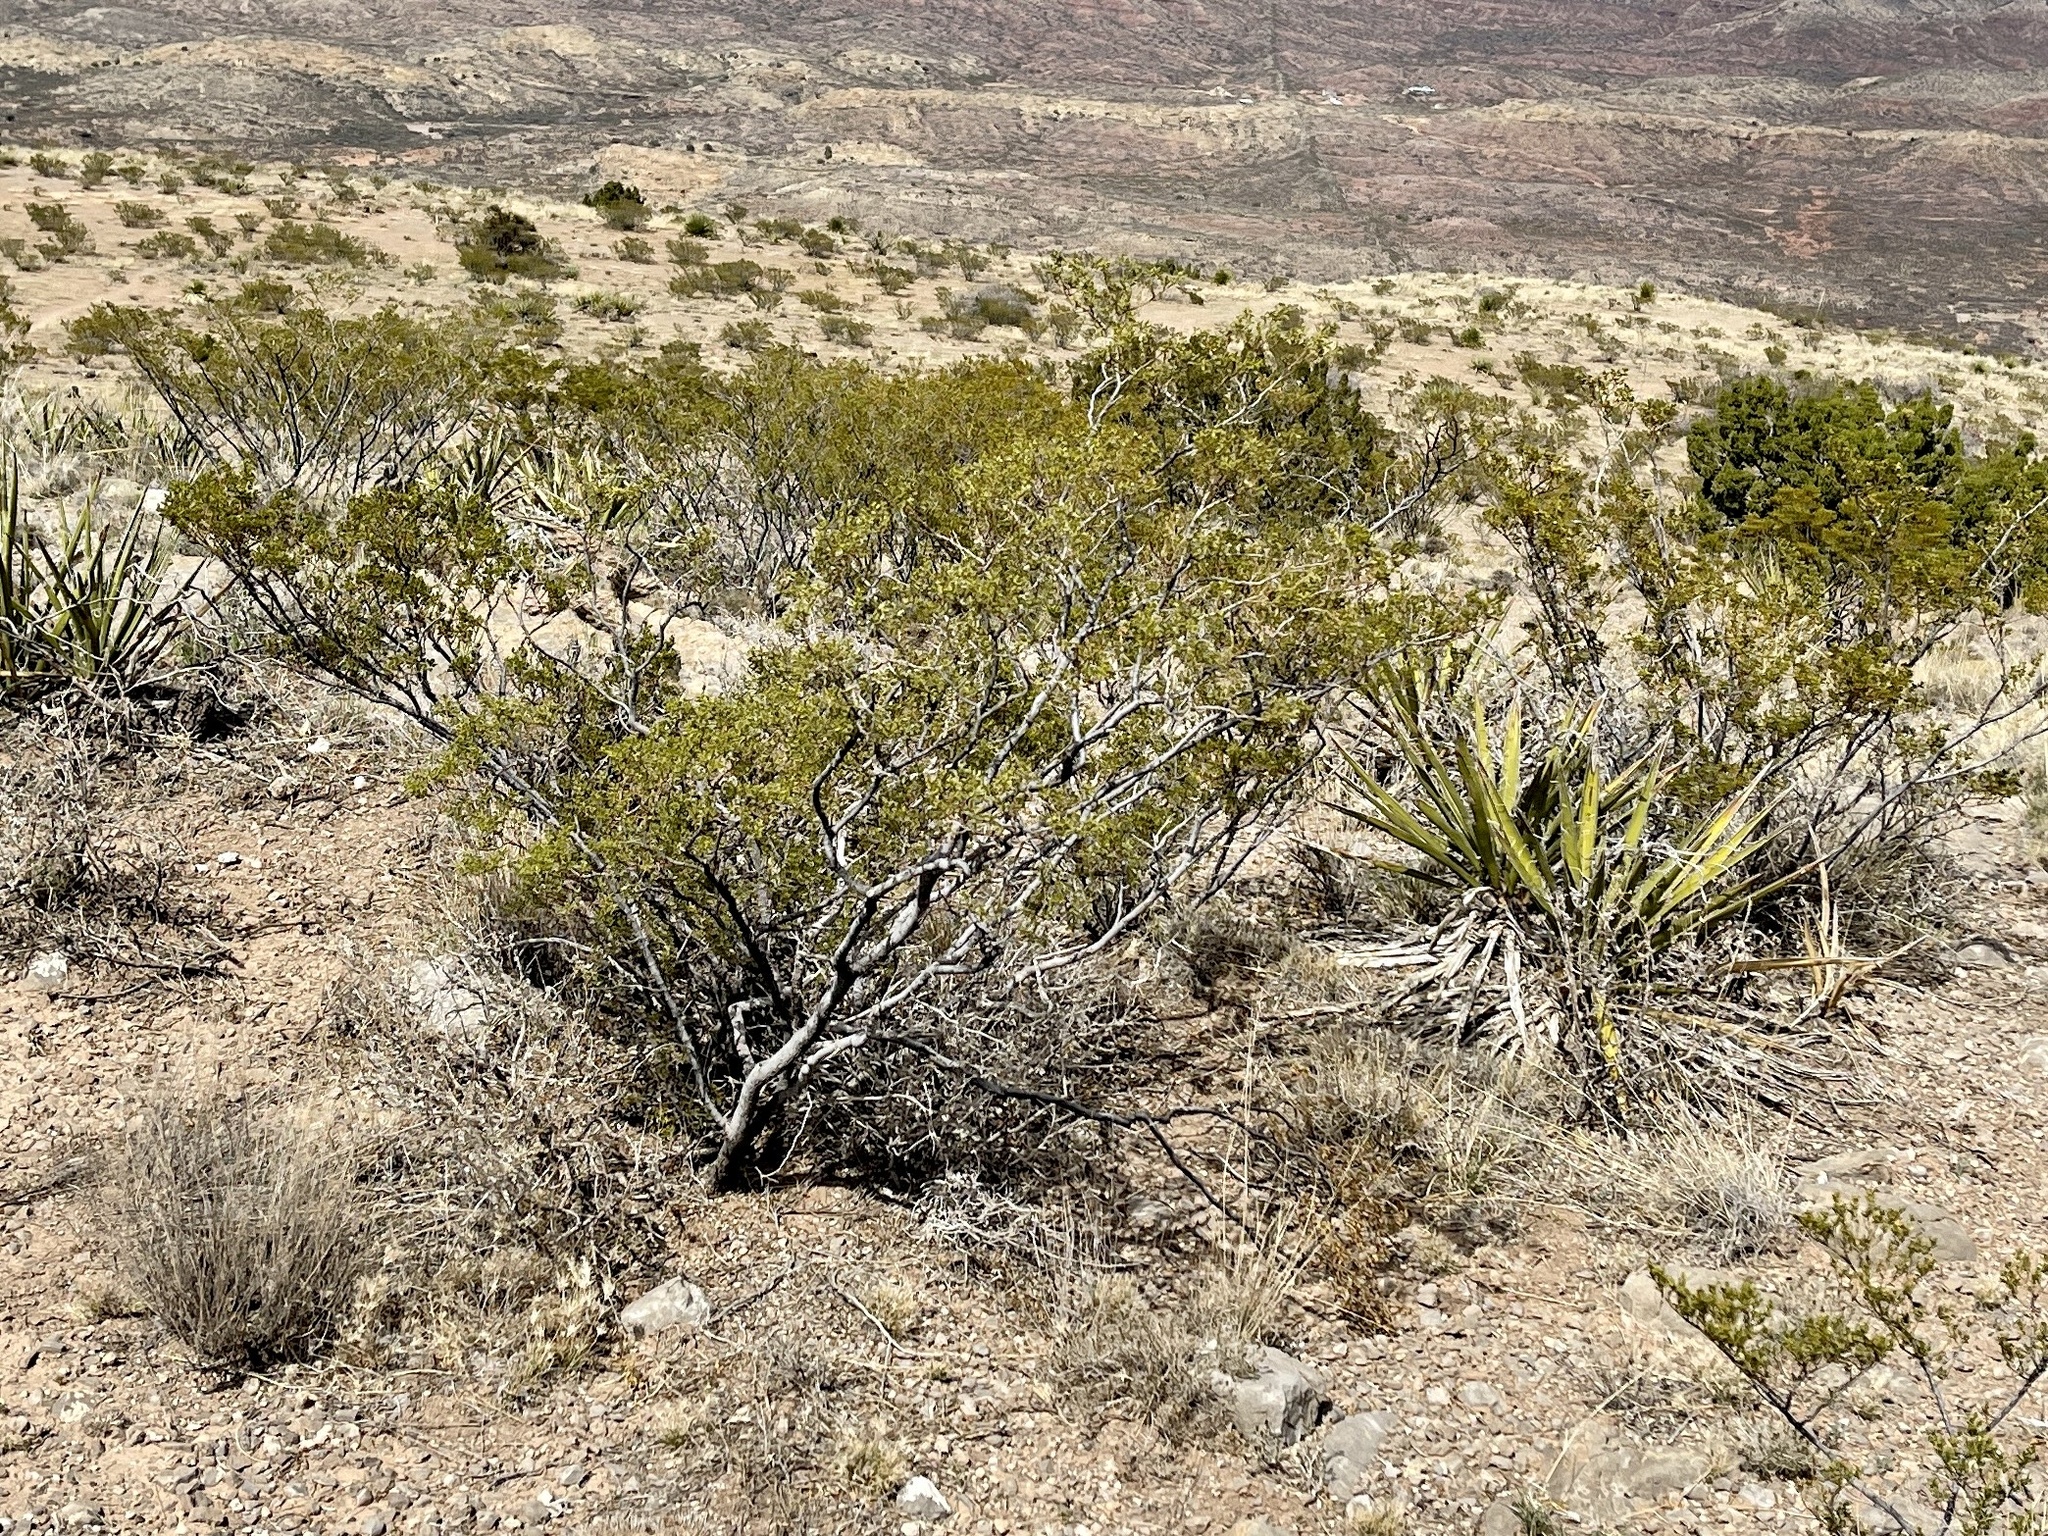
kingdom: Plantae
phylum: Tracheophyta
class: Magnoliopsida
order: Zygophyllales
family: Zygophyllaceae
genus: Larrea
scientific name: Larrea tridentata
